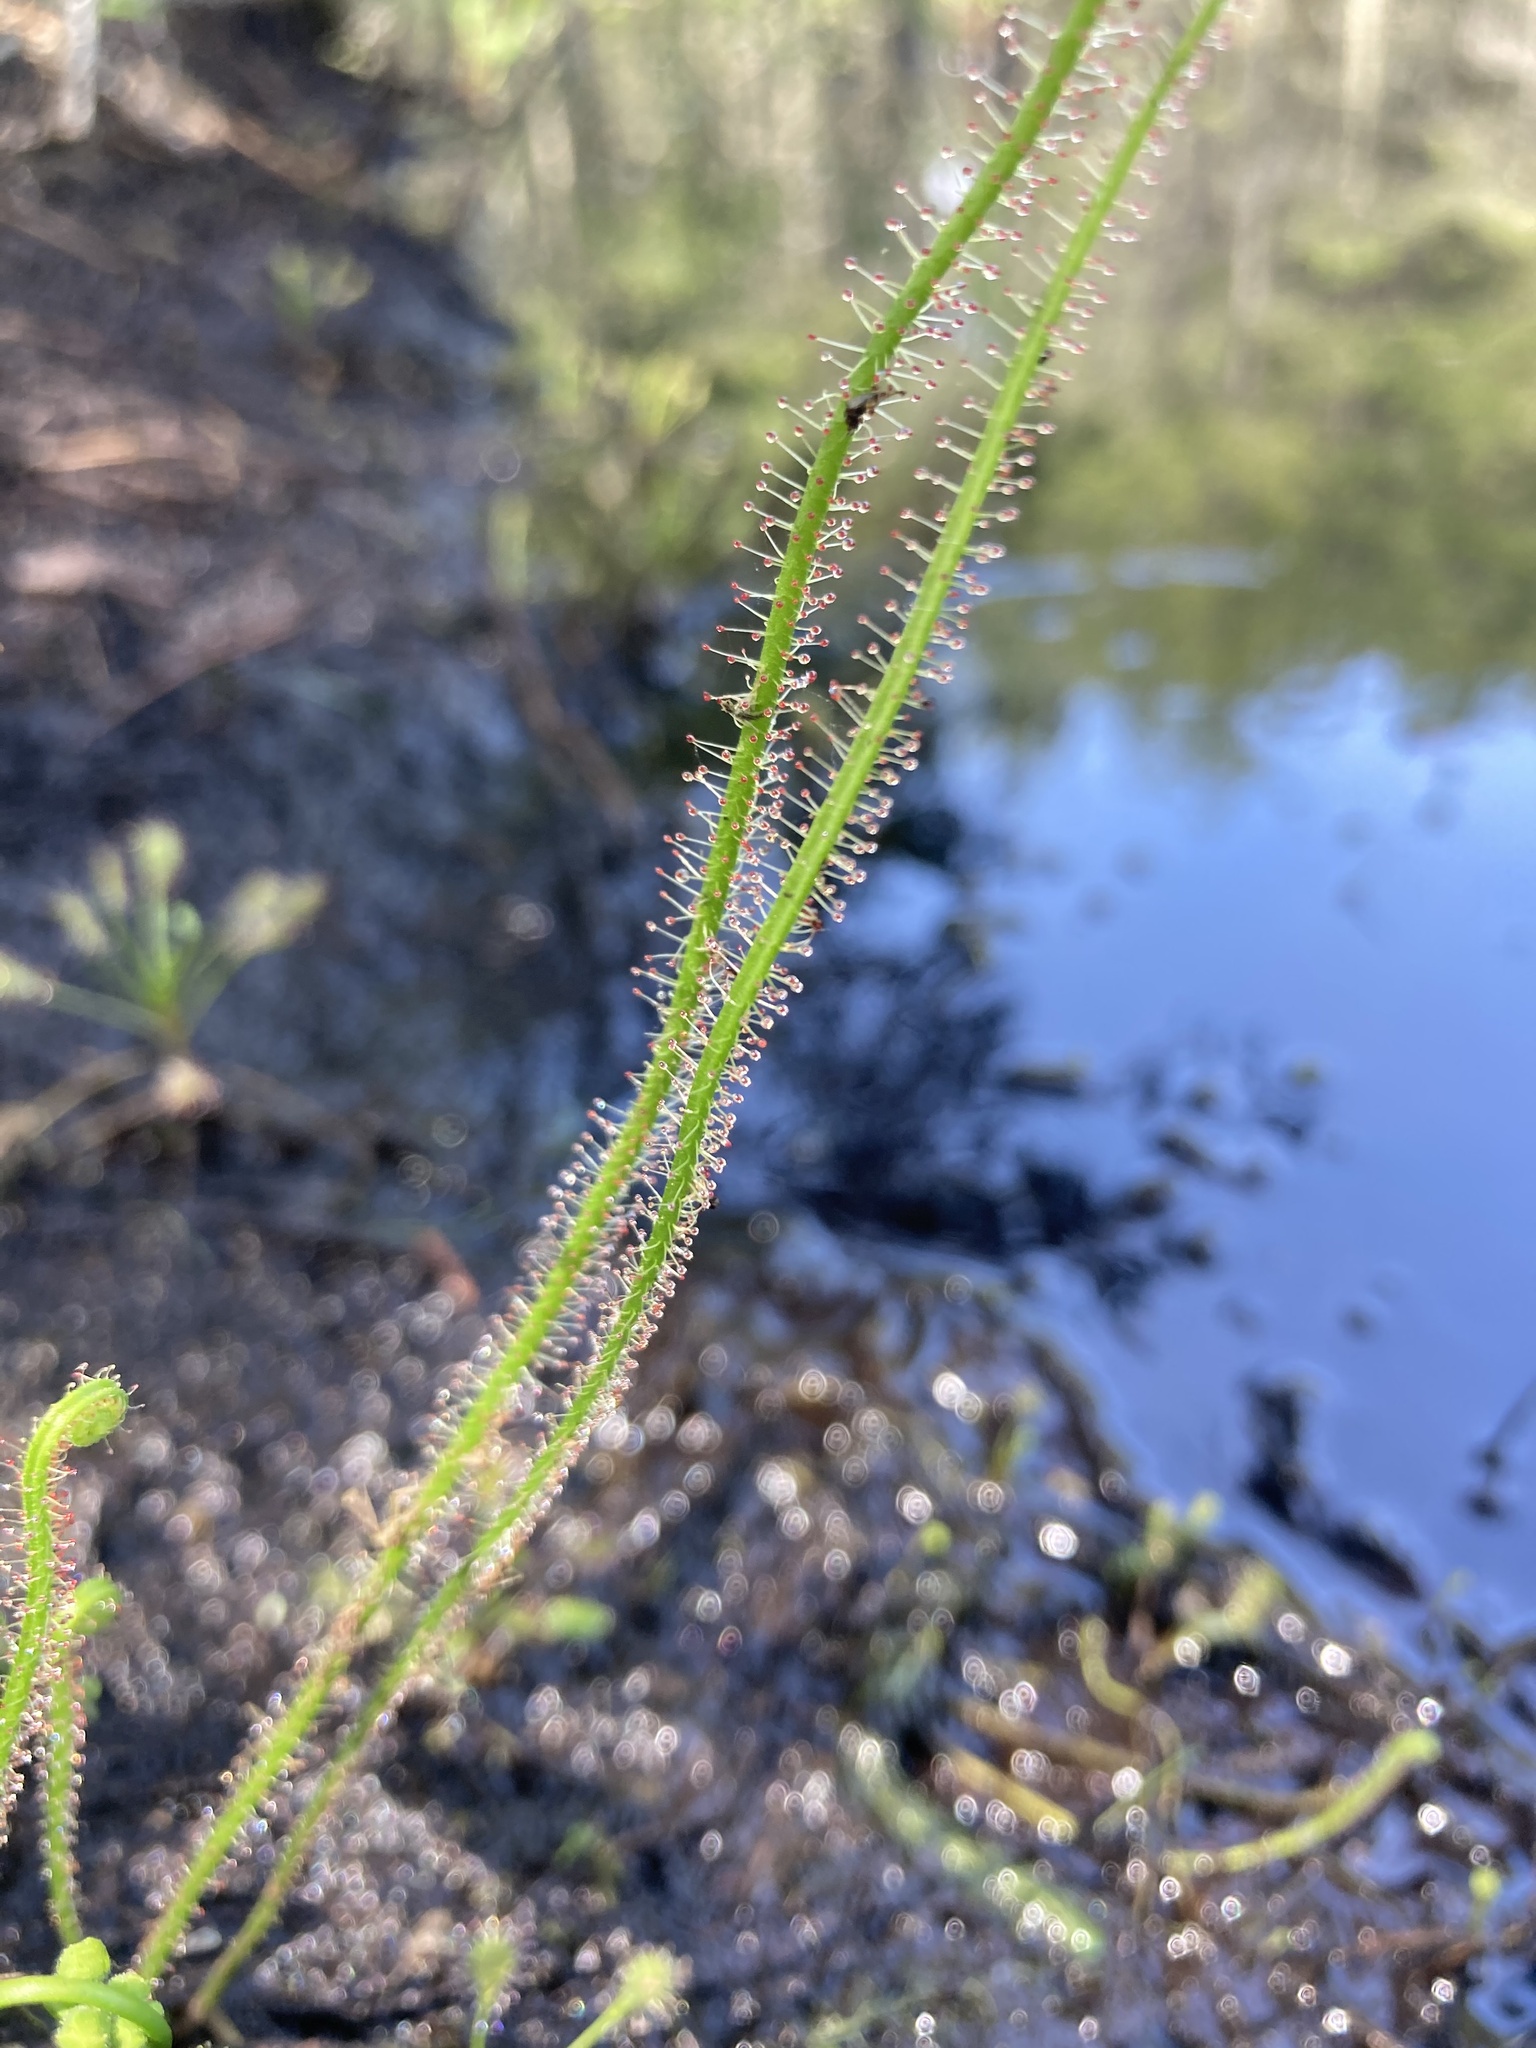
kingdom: Plantae
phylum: Tracheophyta
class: Magnoliopsida
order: Caryophyllales
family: Droseraceae
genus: Drosera
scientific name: Drosera filiformis
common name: Dew-thread
